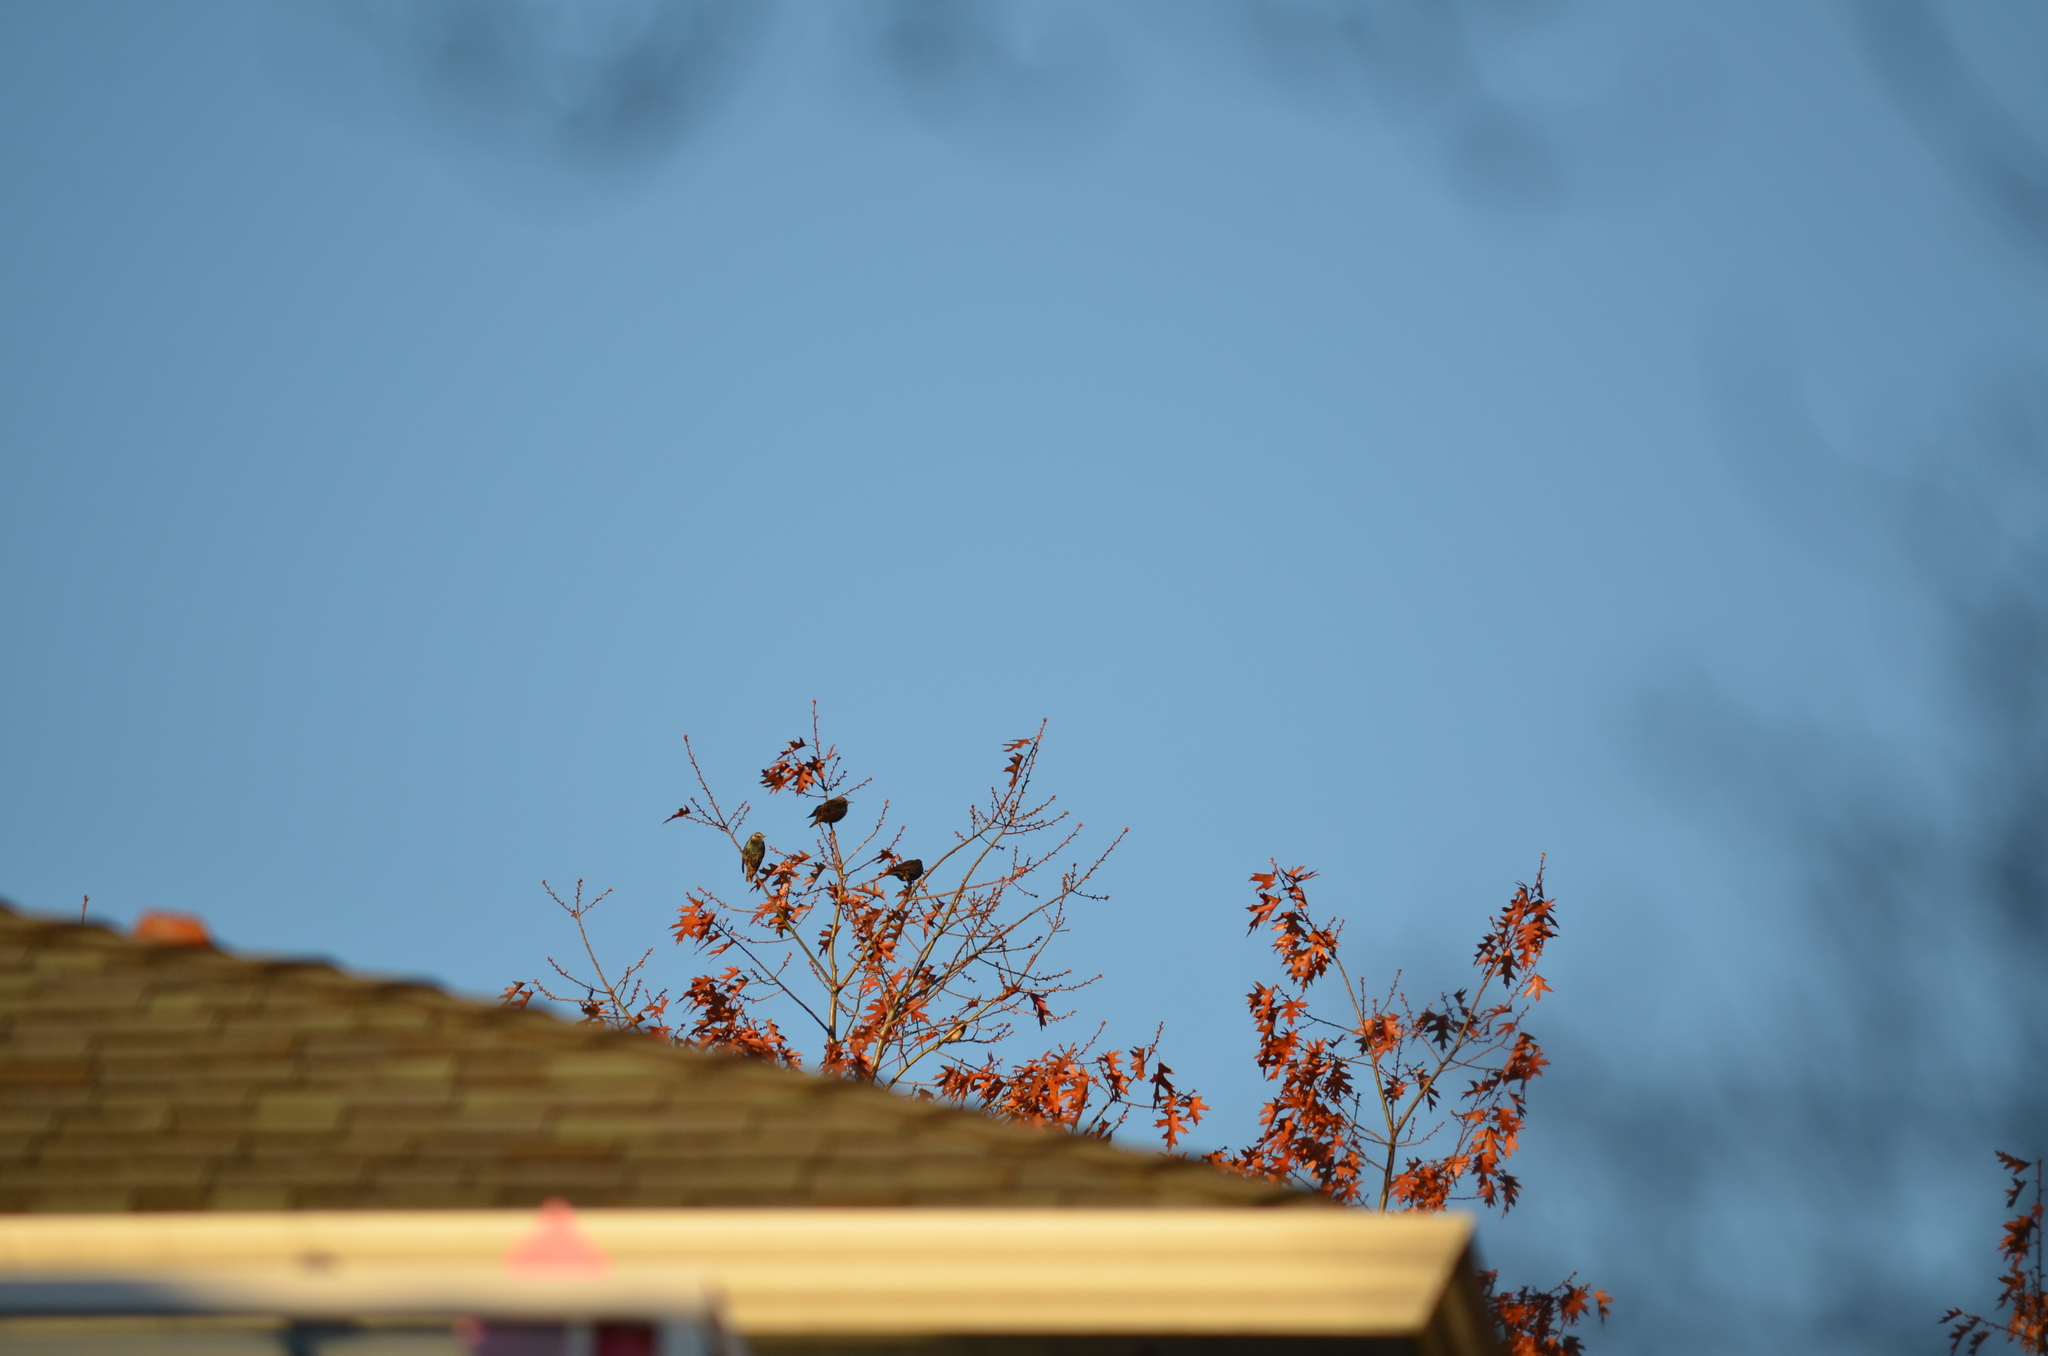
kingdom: Animalia
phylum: Chordata
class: Aves
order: Passeriformes
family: Sturnidae
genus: Sturnus
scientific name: Sturnus vulgaris
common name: Common starling
